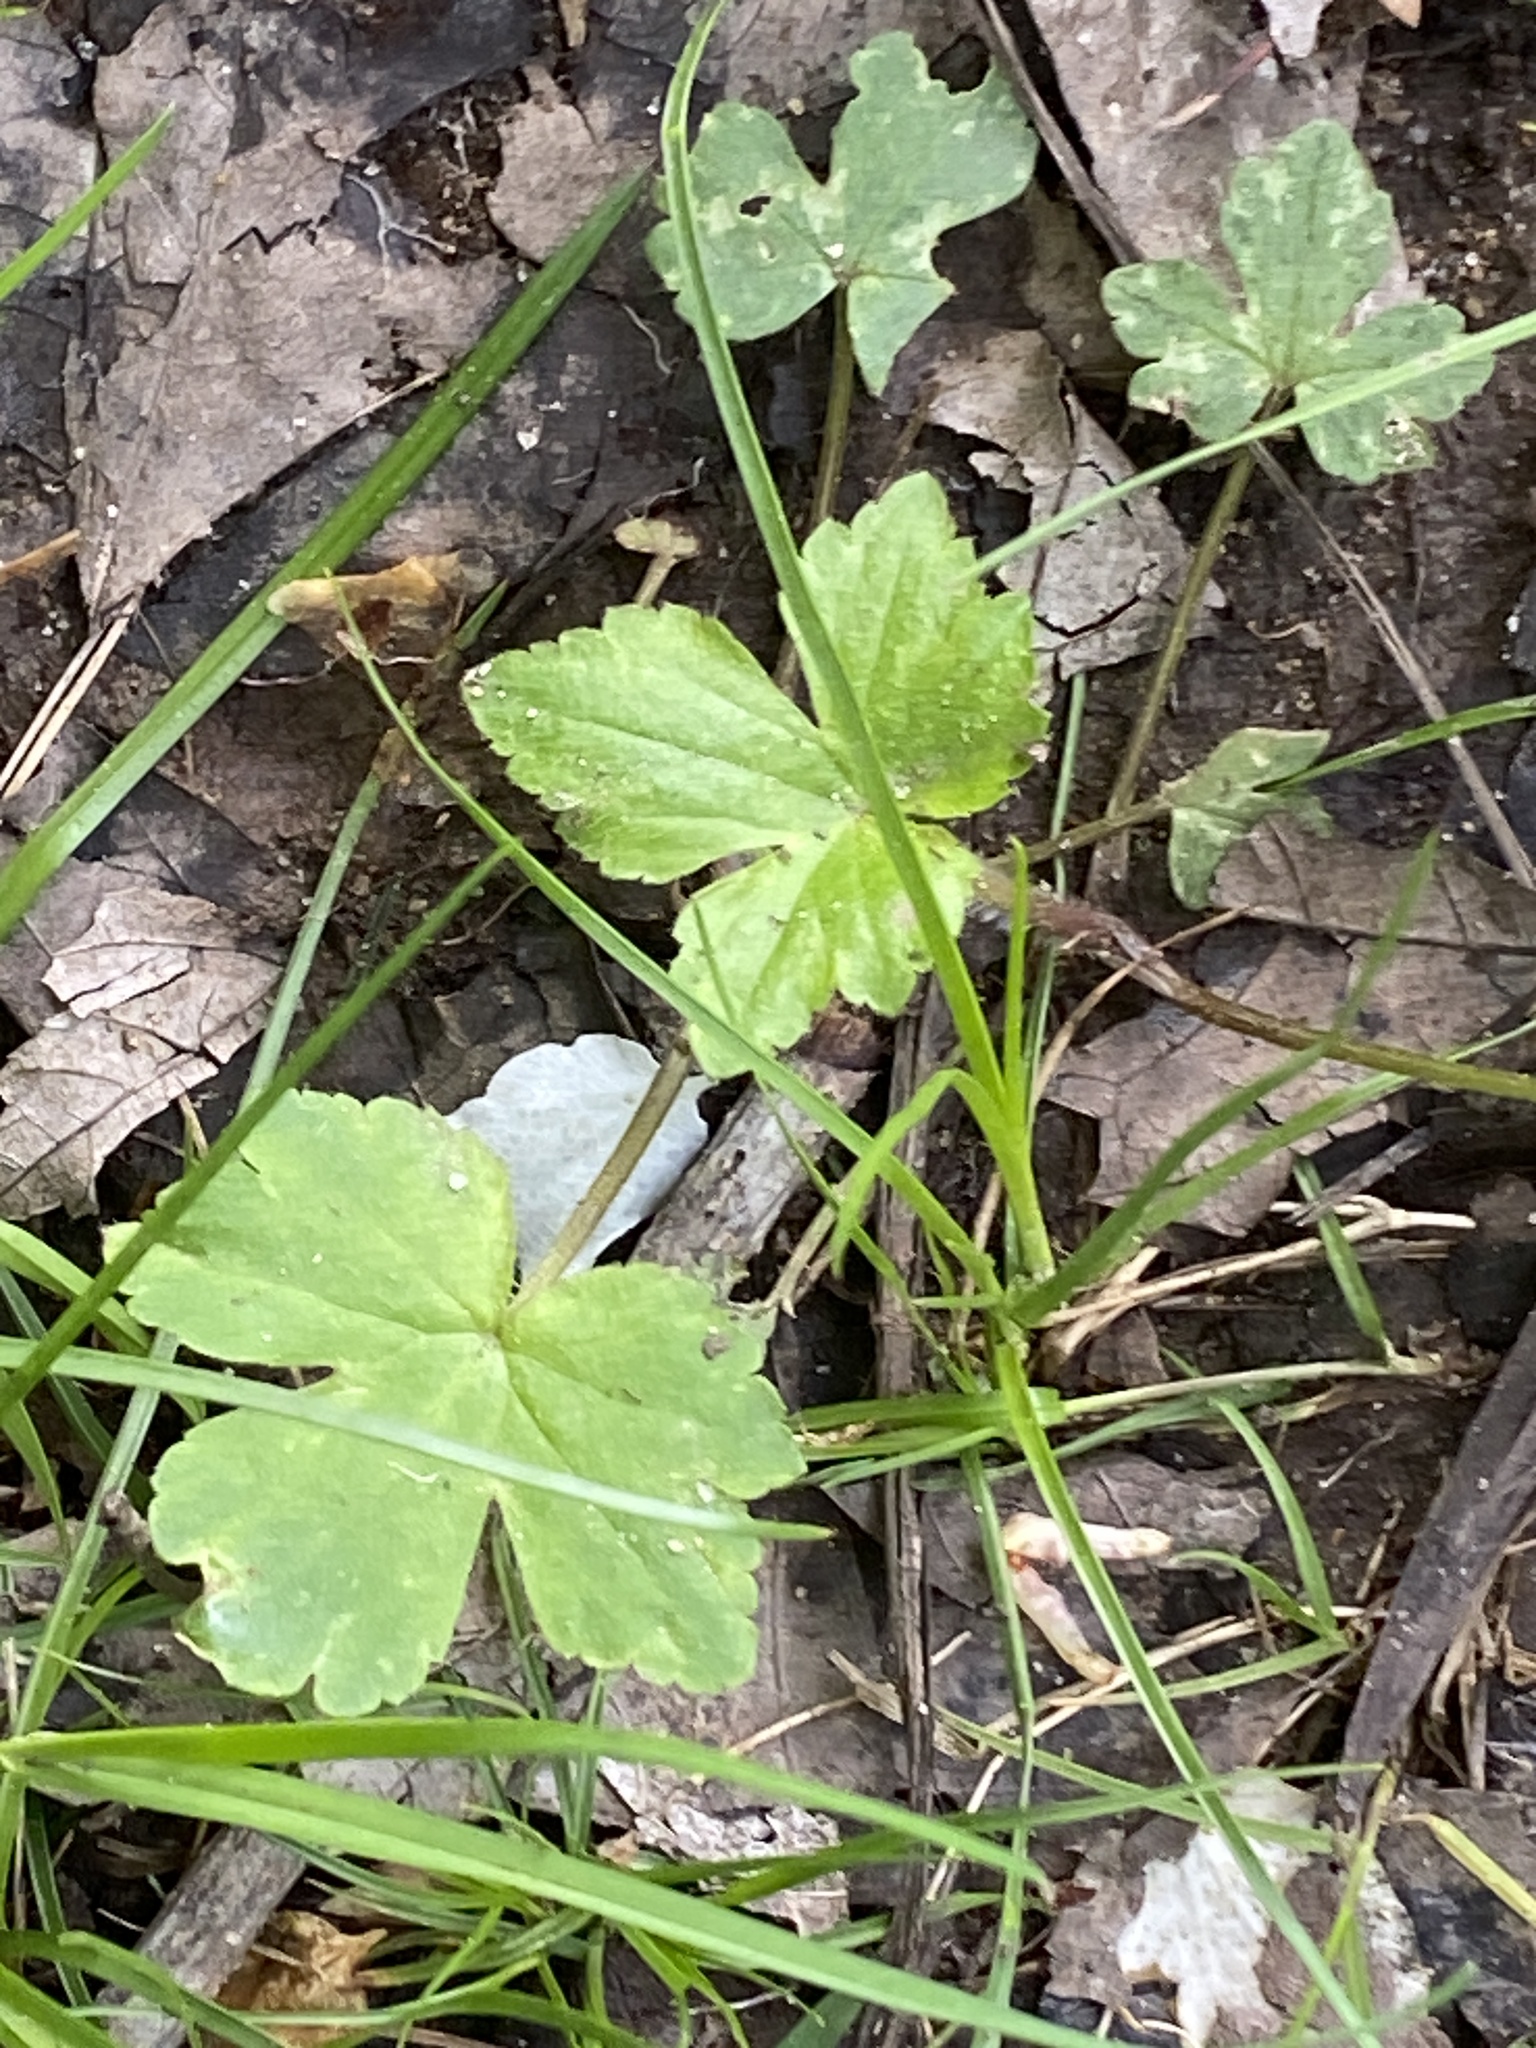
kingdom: Plantae
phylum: Tracheophyta
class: Magnoliopsida
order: Ranunculales
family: Ranunculaceae
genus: Ranunculus
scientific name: Ranunculus recurvatus
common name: Blisterwort
